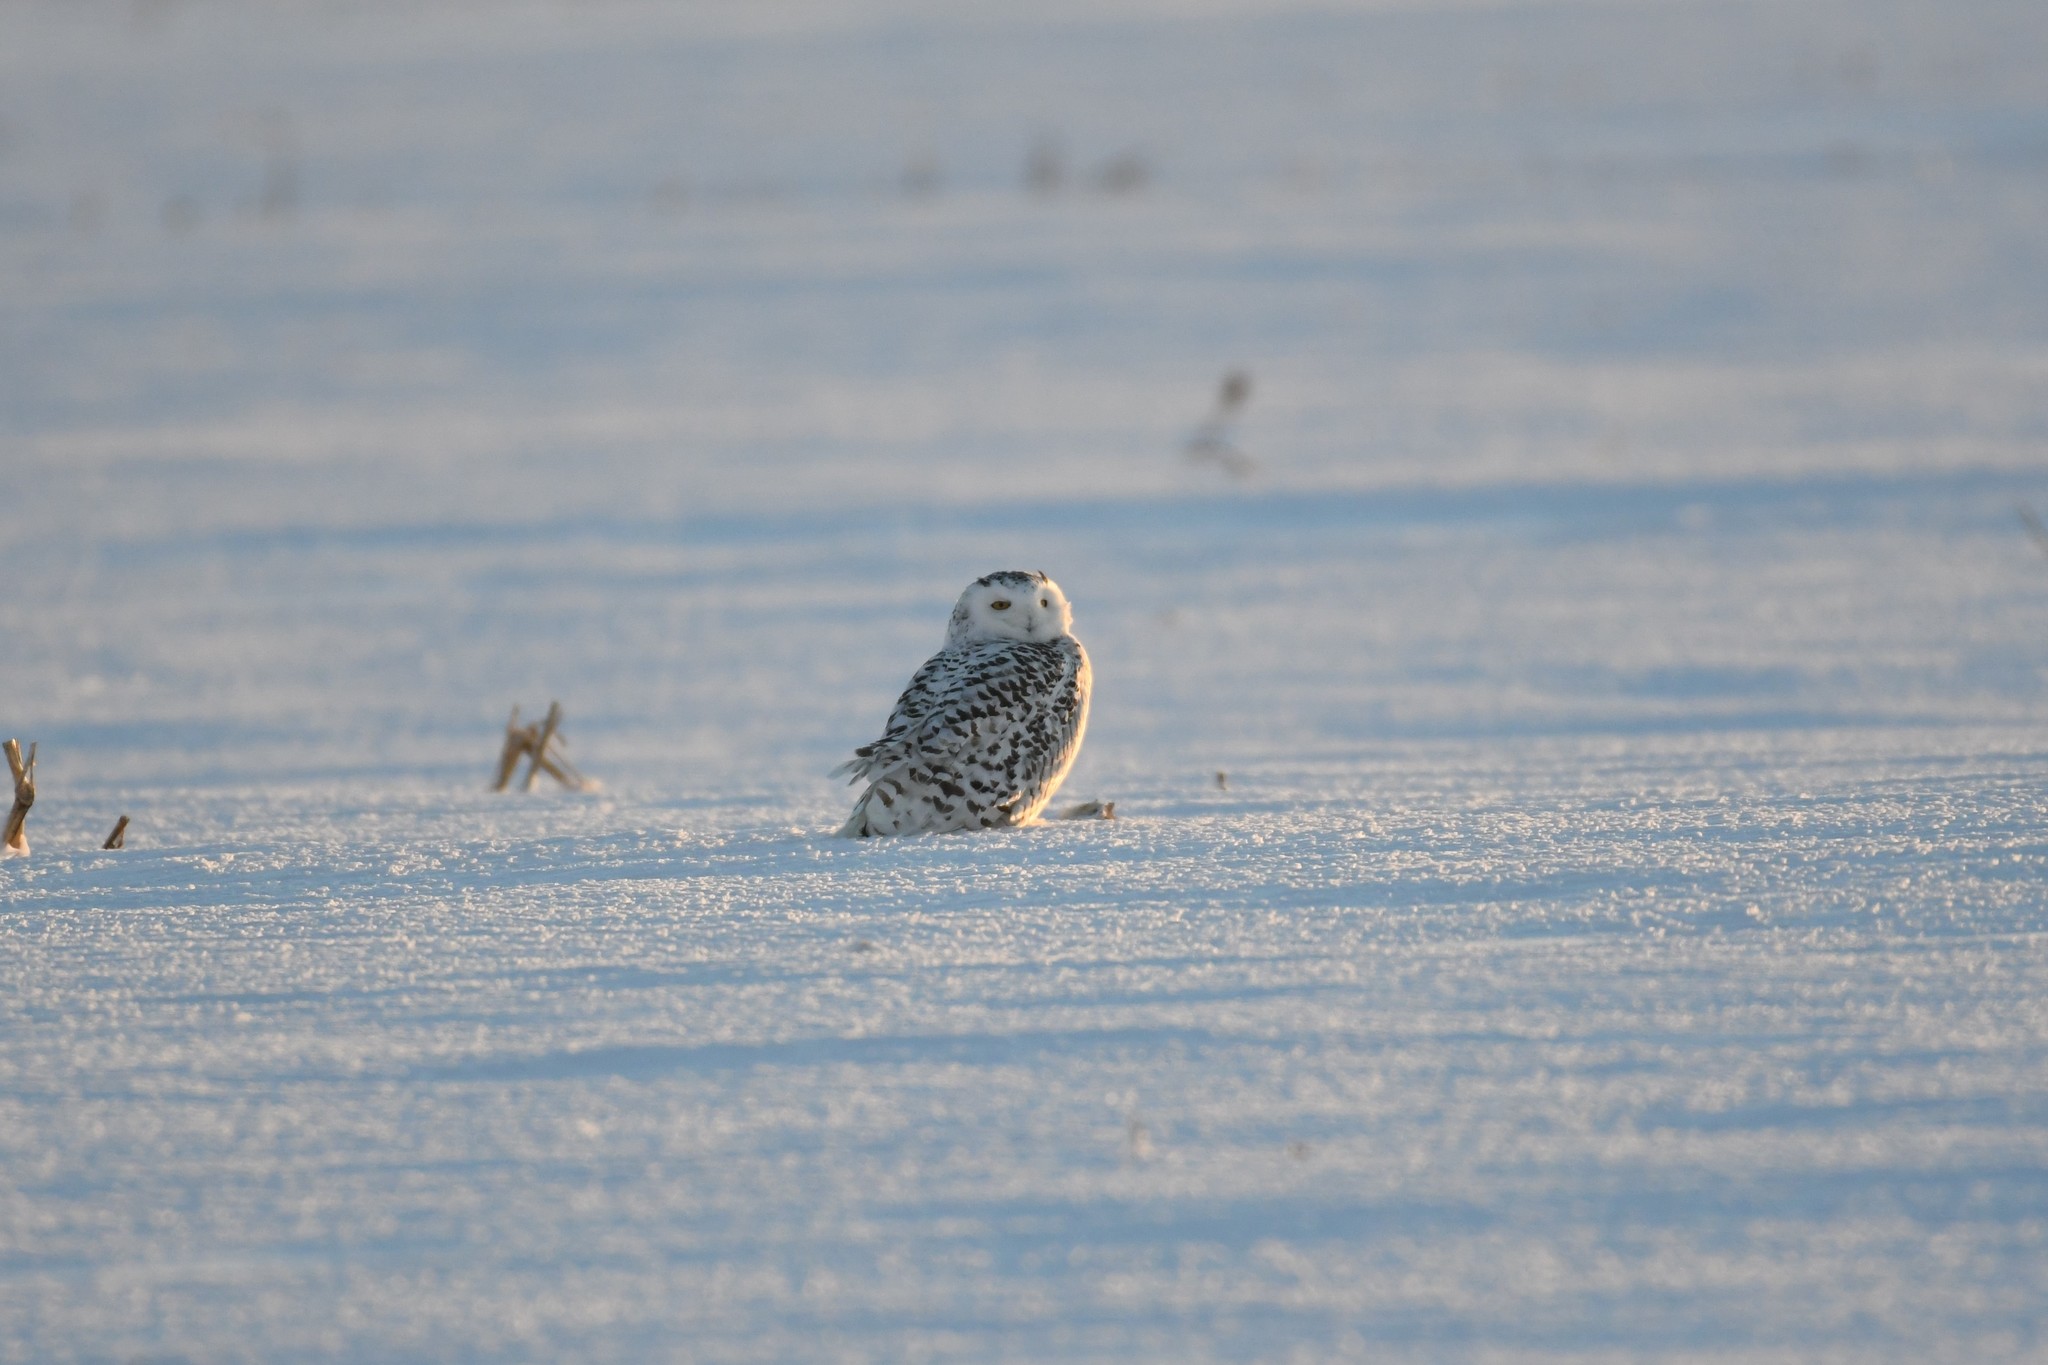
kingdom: Animalia
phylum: Chordata
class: Aves
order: Strigiformes
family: Strigidae
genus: Bubo
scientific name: Bubo scandiacus
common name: Snowy owl
